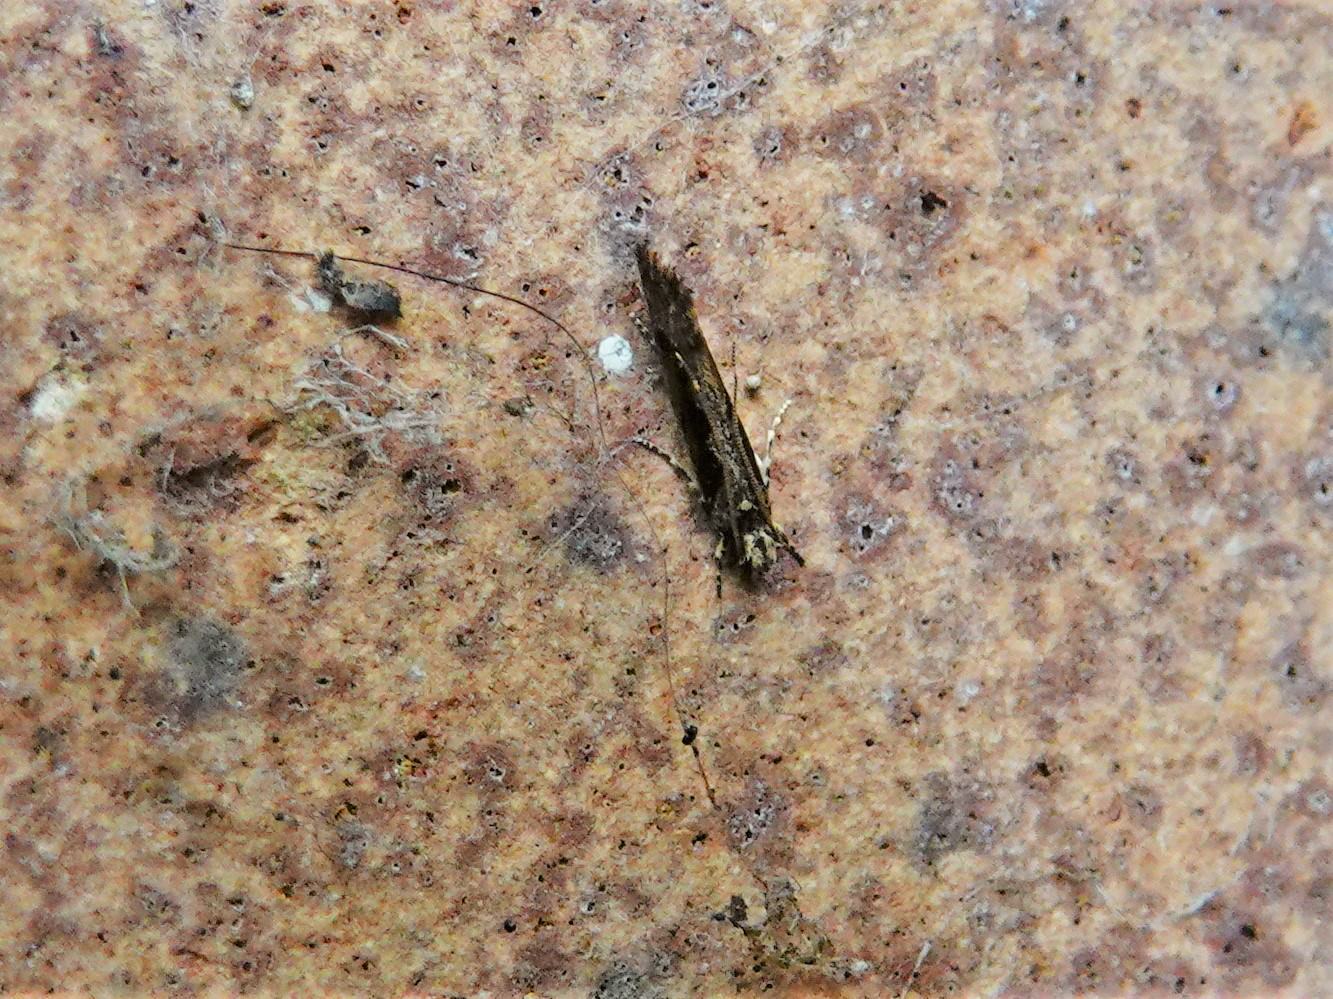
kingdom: Animalia
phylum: Arthropoda
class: Insecta
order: Lepidoptera
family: Tineidae
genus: Erechthias
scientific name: Erechthias capnitis
